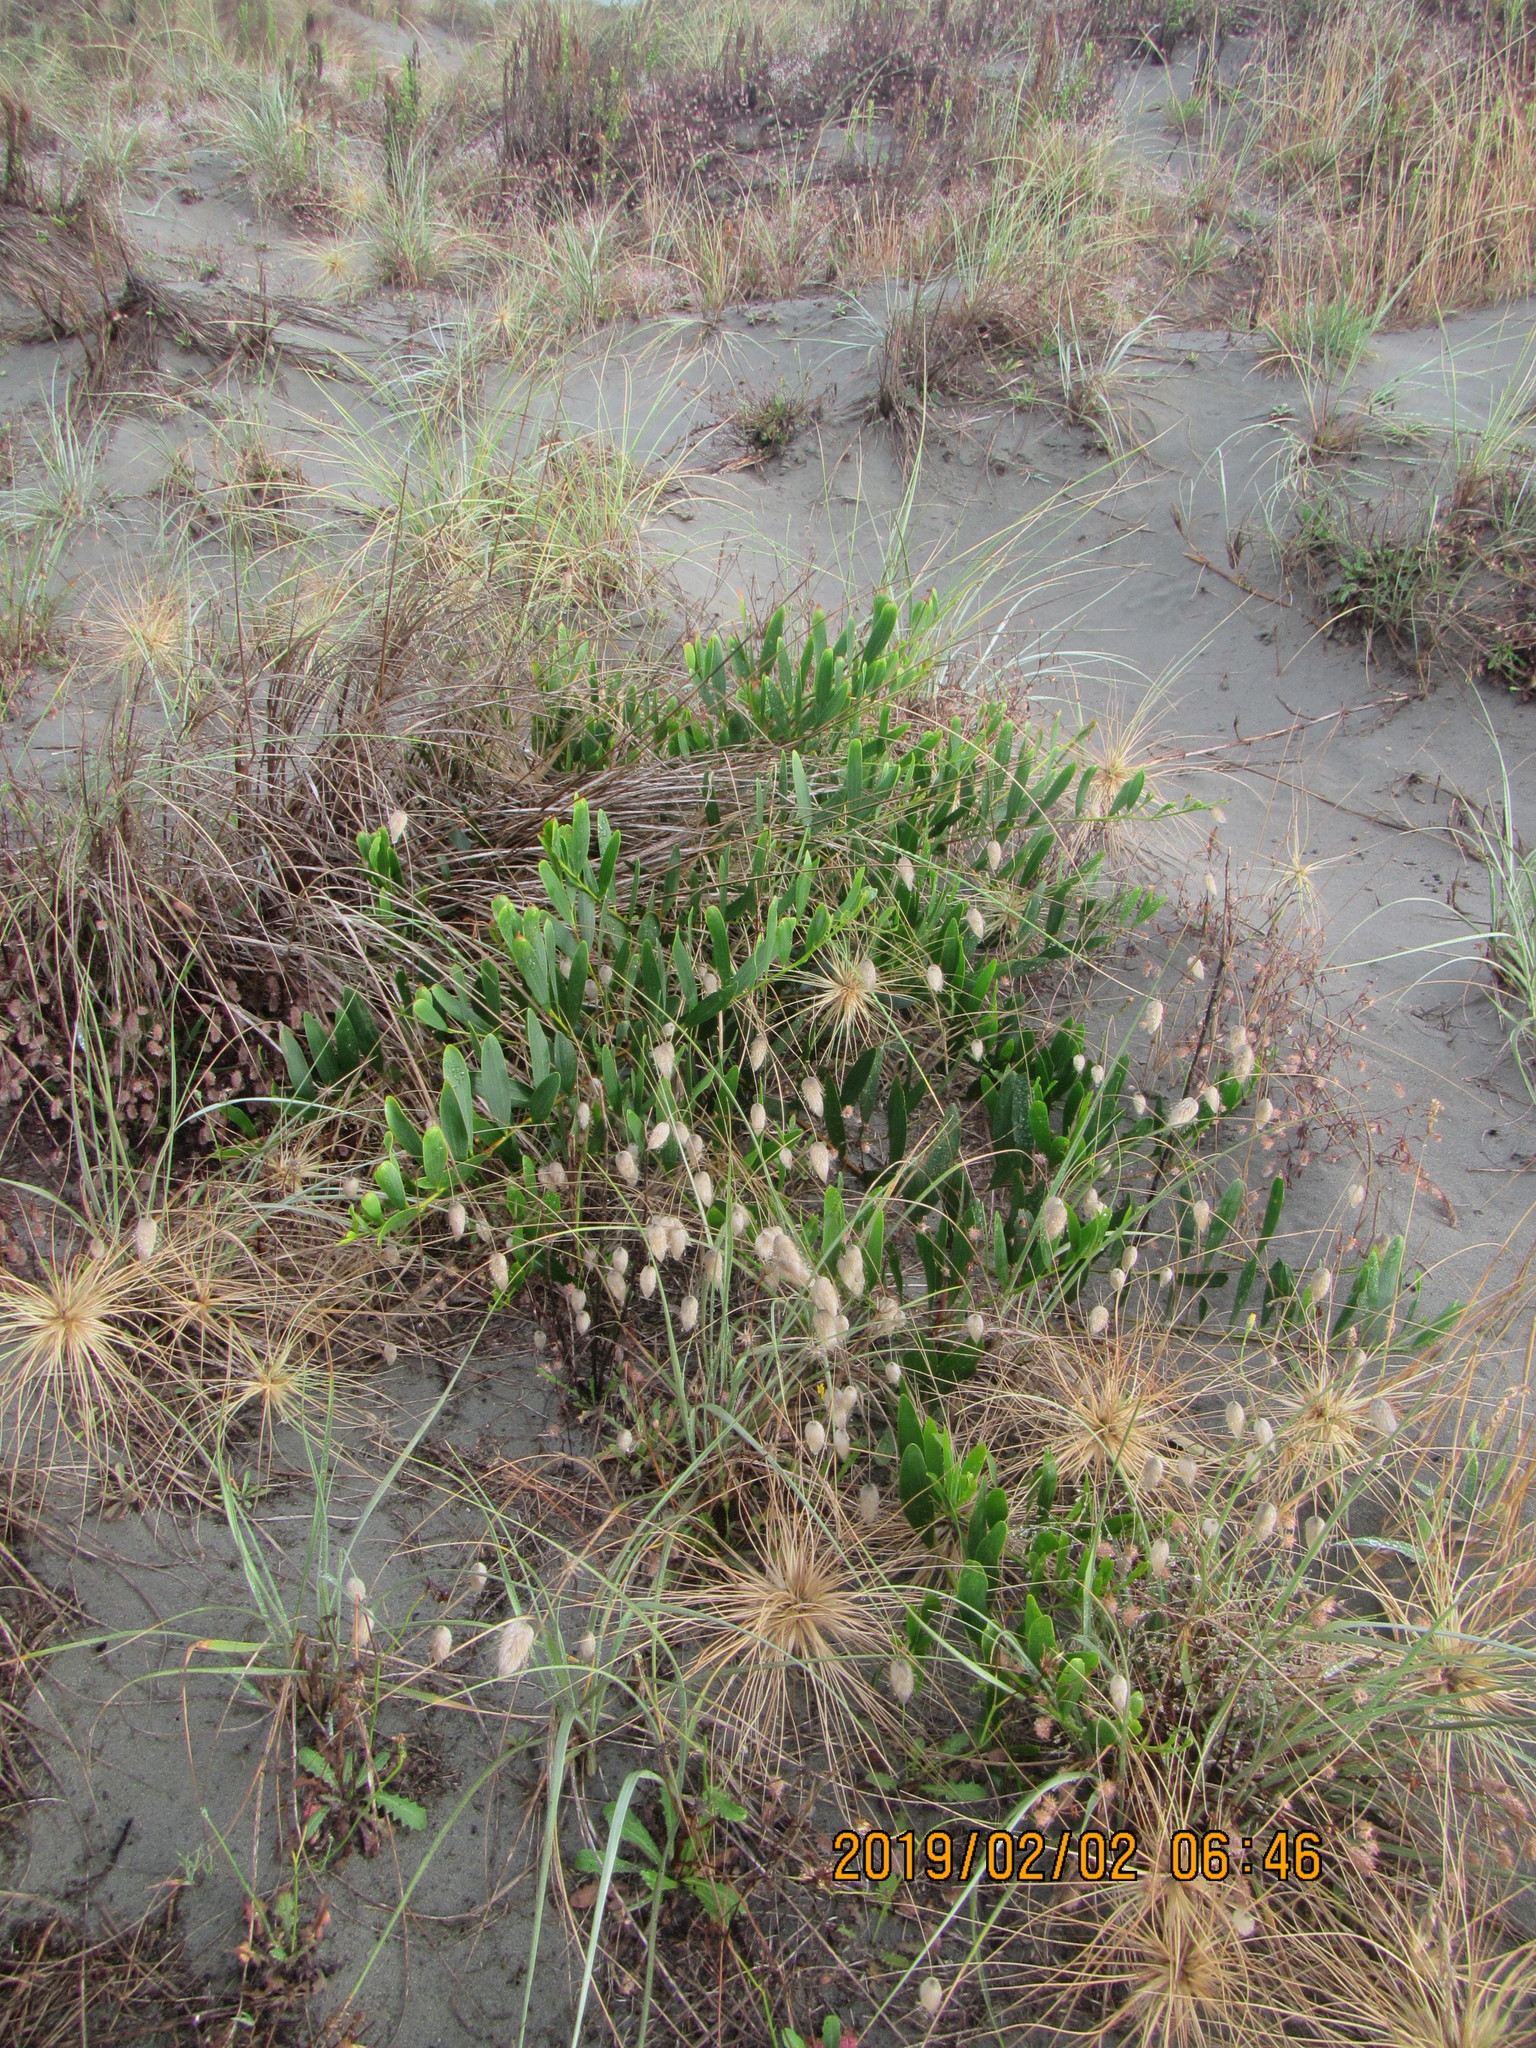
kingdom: Plantae
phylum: Tracheophyta
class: Magnoliopsida
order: Fabales
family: Fabaceae
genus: Acacia
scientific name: Acacia longifolia
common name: Sydney golden wattle
